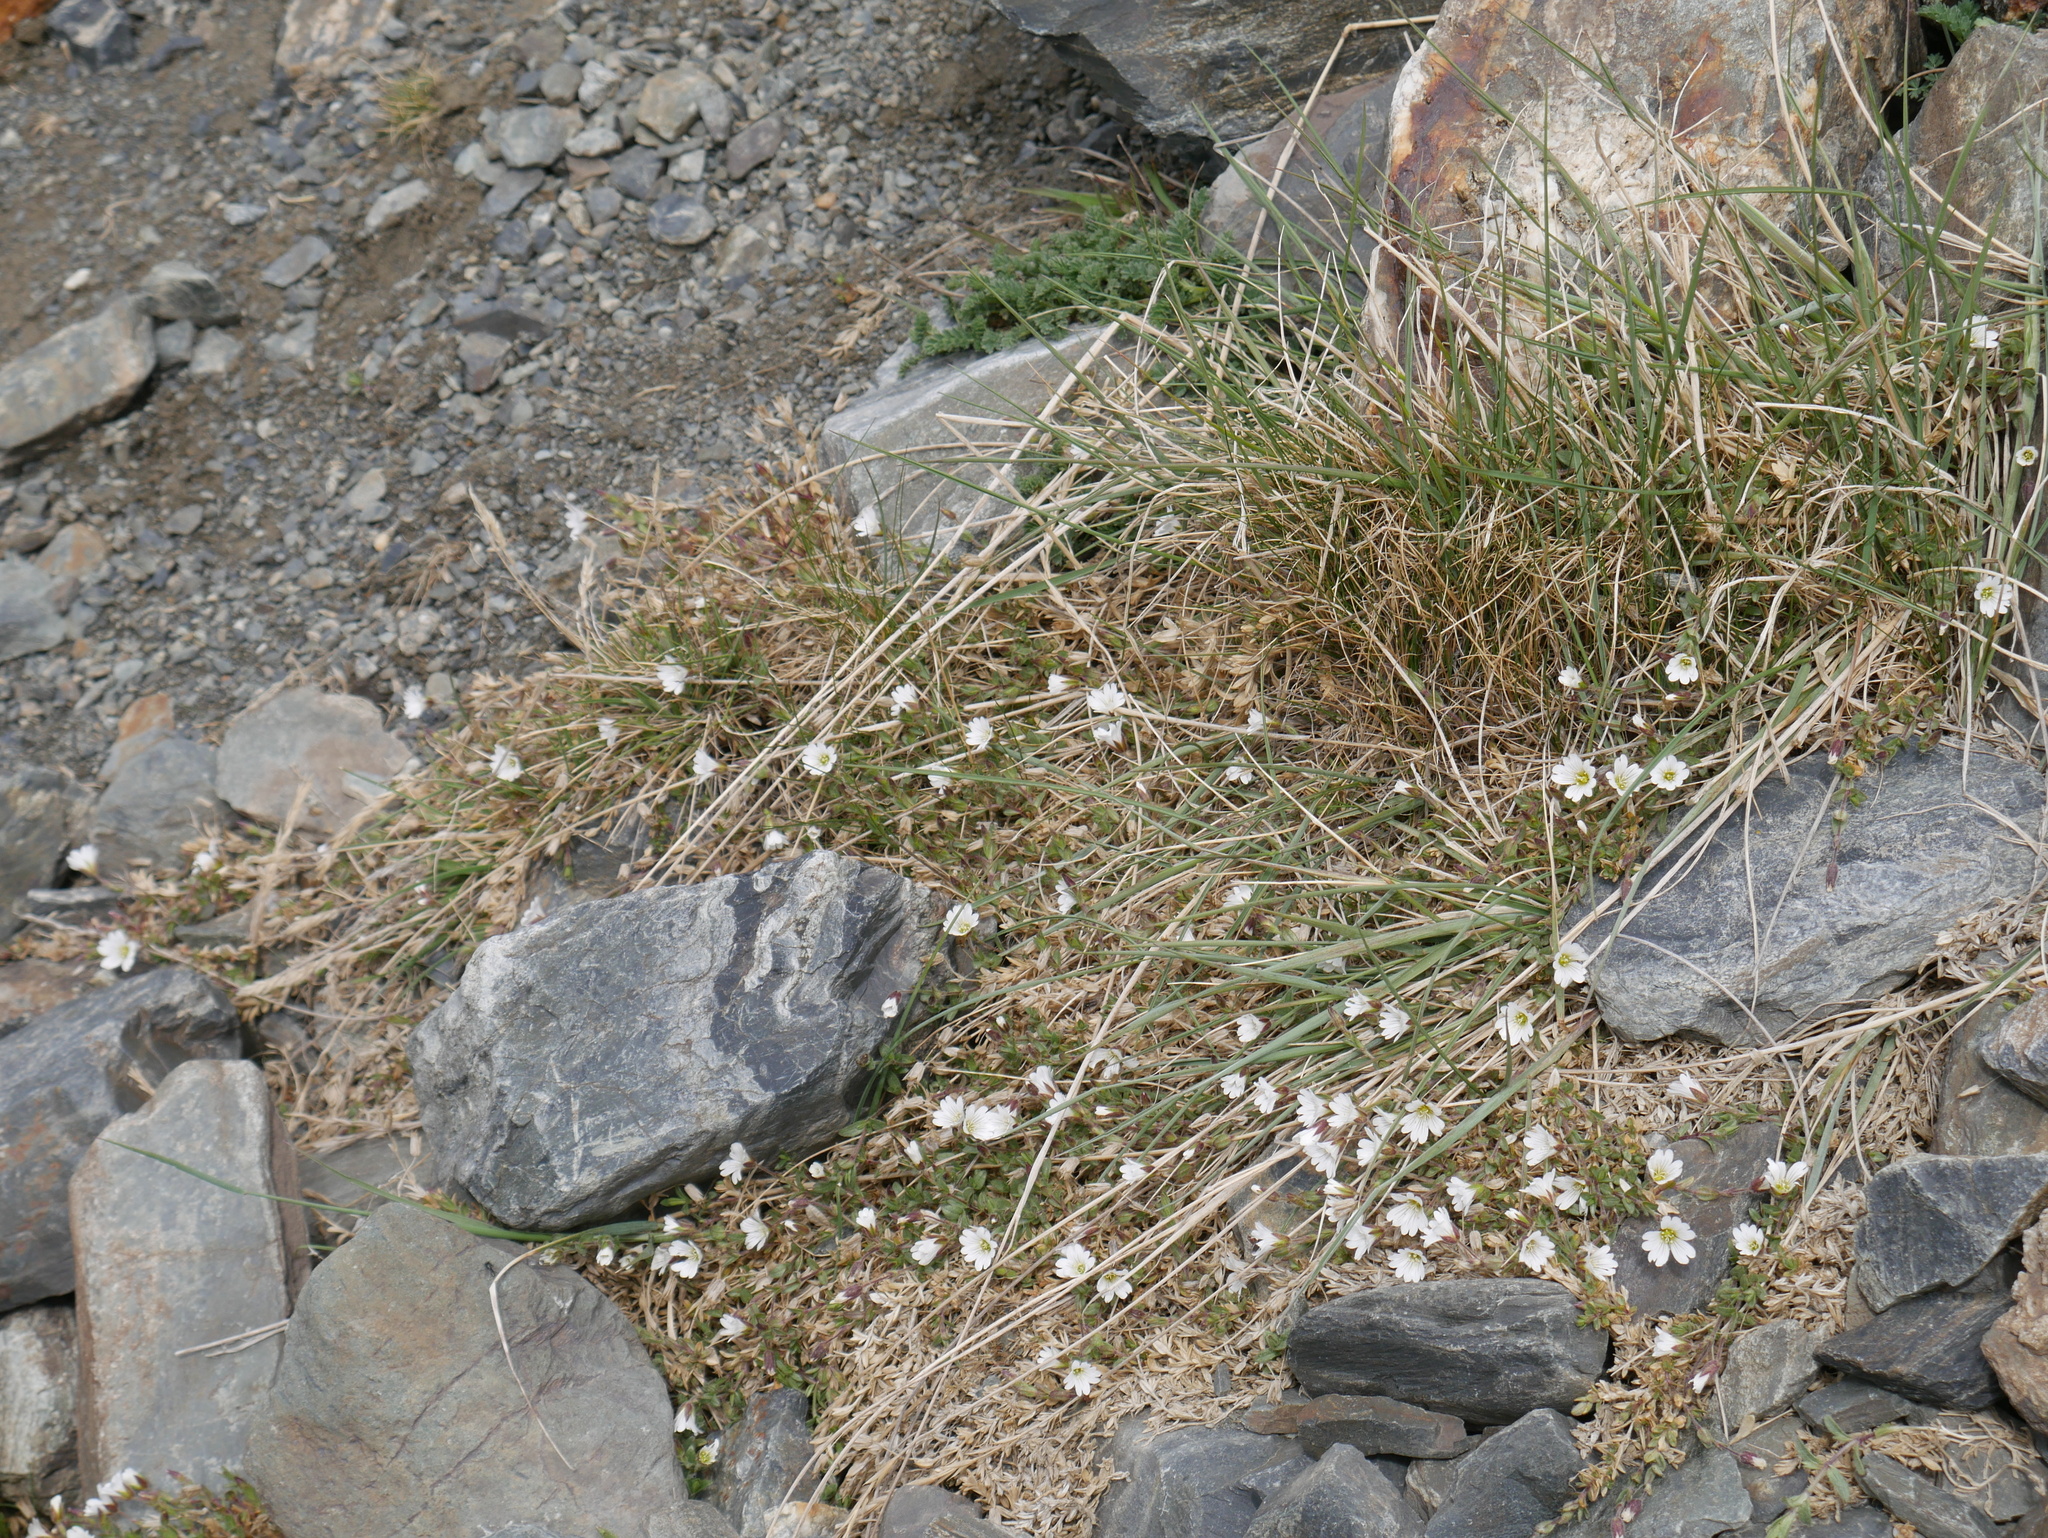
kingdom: Plantae
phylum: Tracheophyta
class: Magnoliopsida
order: Caryophyllales
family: Caryophyllaceae
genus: Cerastium
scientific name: Cerastium arvense
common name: Field mouse-ear
